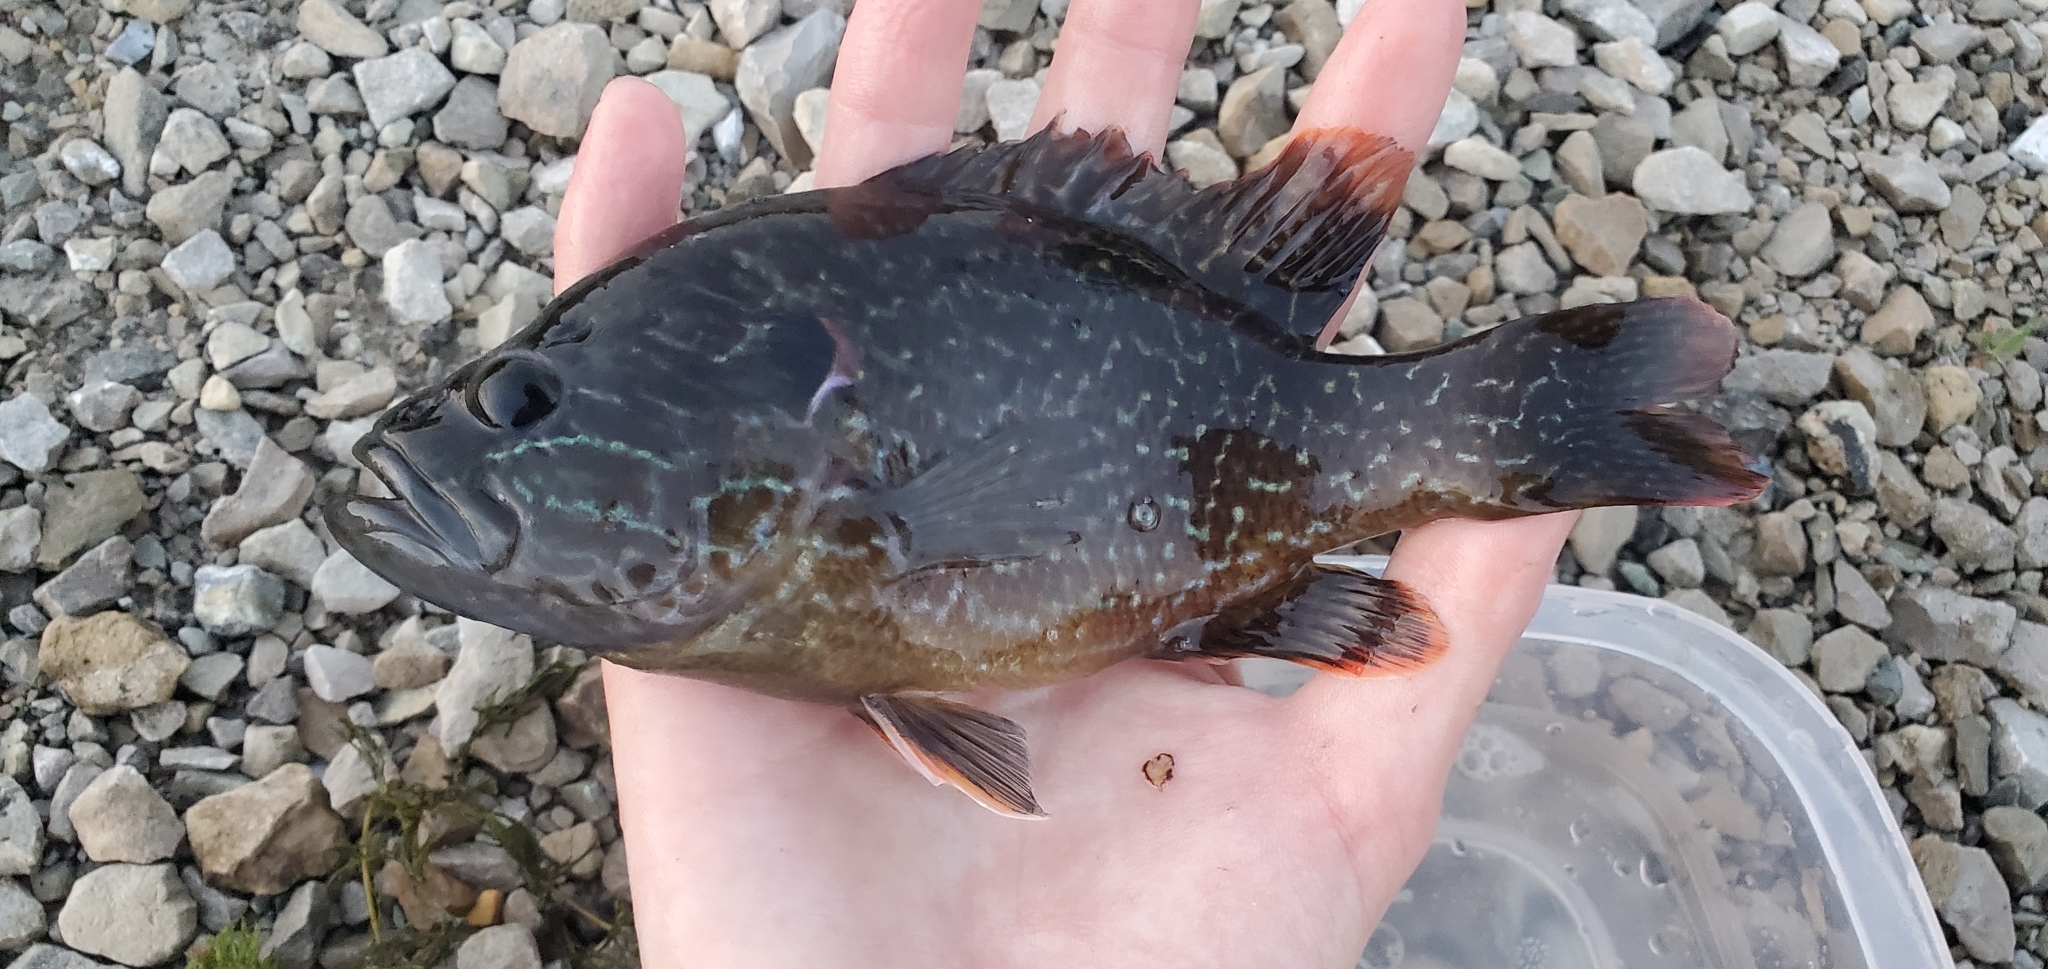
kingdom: Animalia
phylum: Chordata
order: Perciformes
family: Centrarchidae
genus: Lepomis
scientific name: Lepomis
